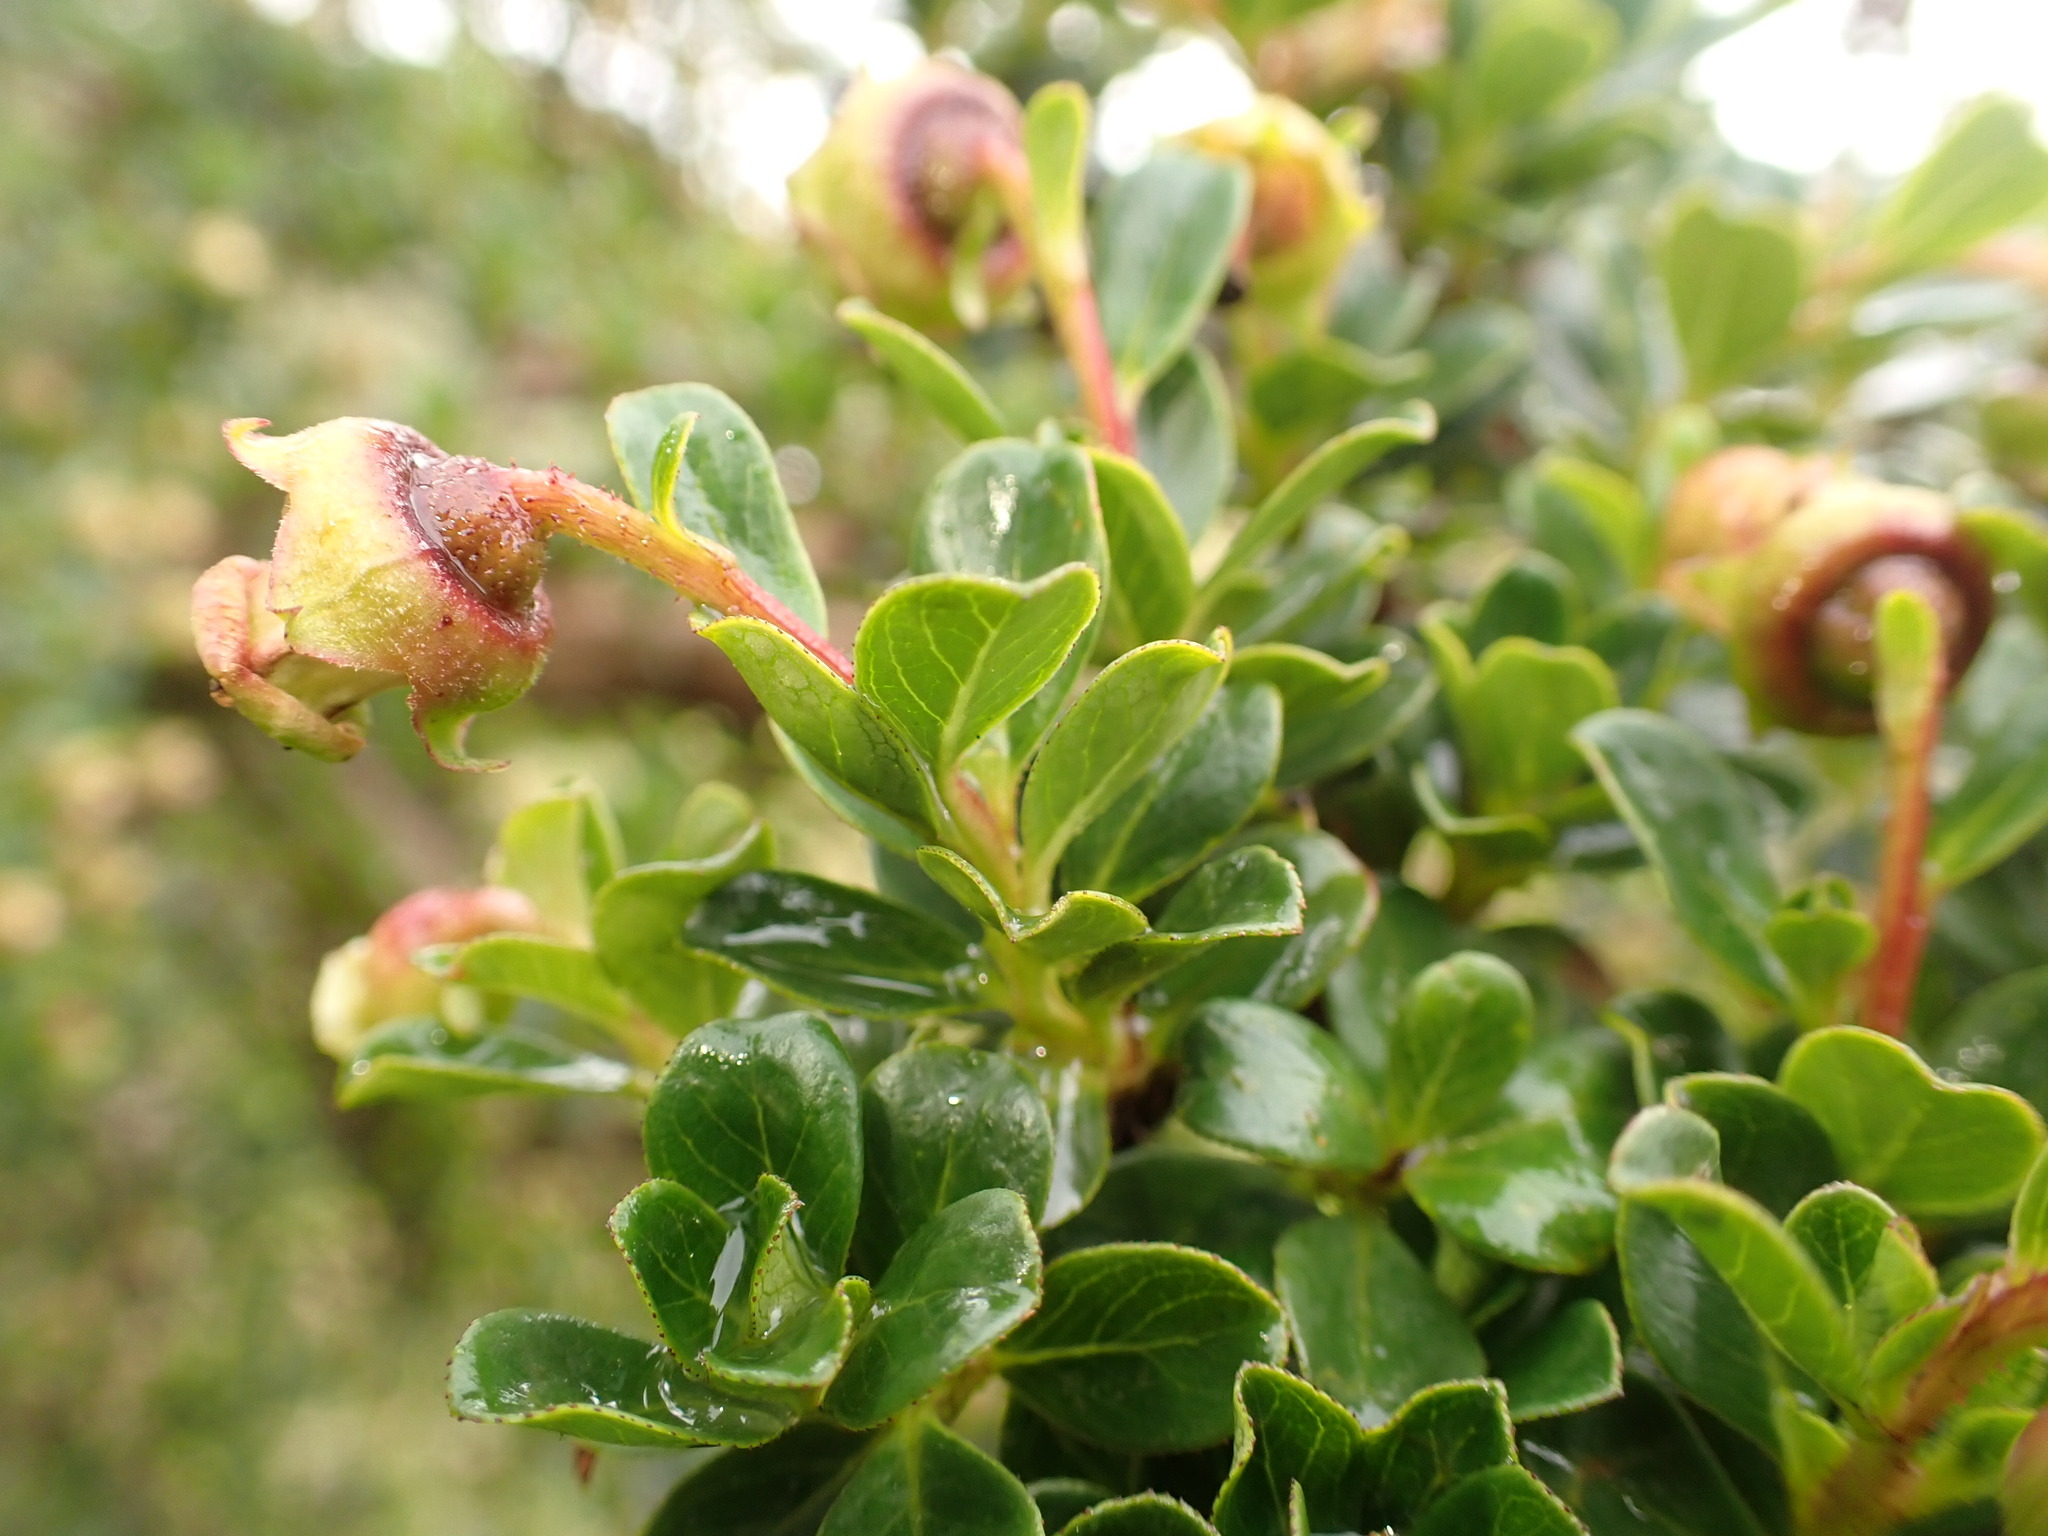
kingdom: Plantae
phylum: Tracheophyta
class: Magnoliopsida
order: Escalloniales
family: Escalloniaceae
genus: Escallonia
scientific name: Escallonia myrtilloides
